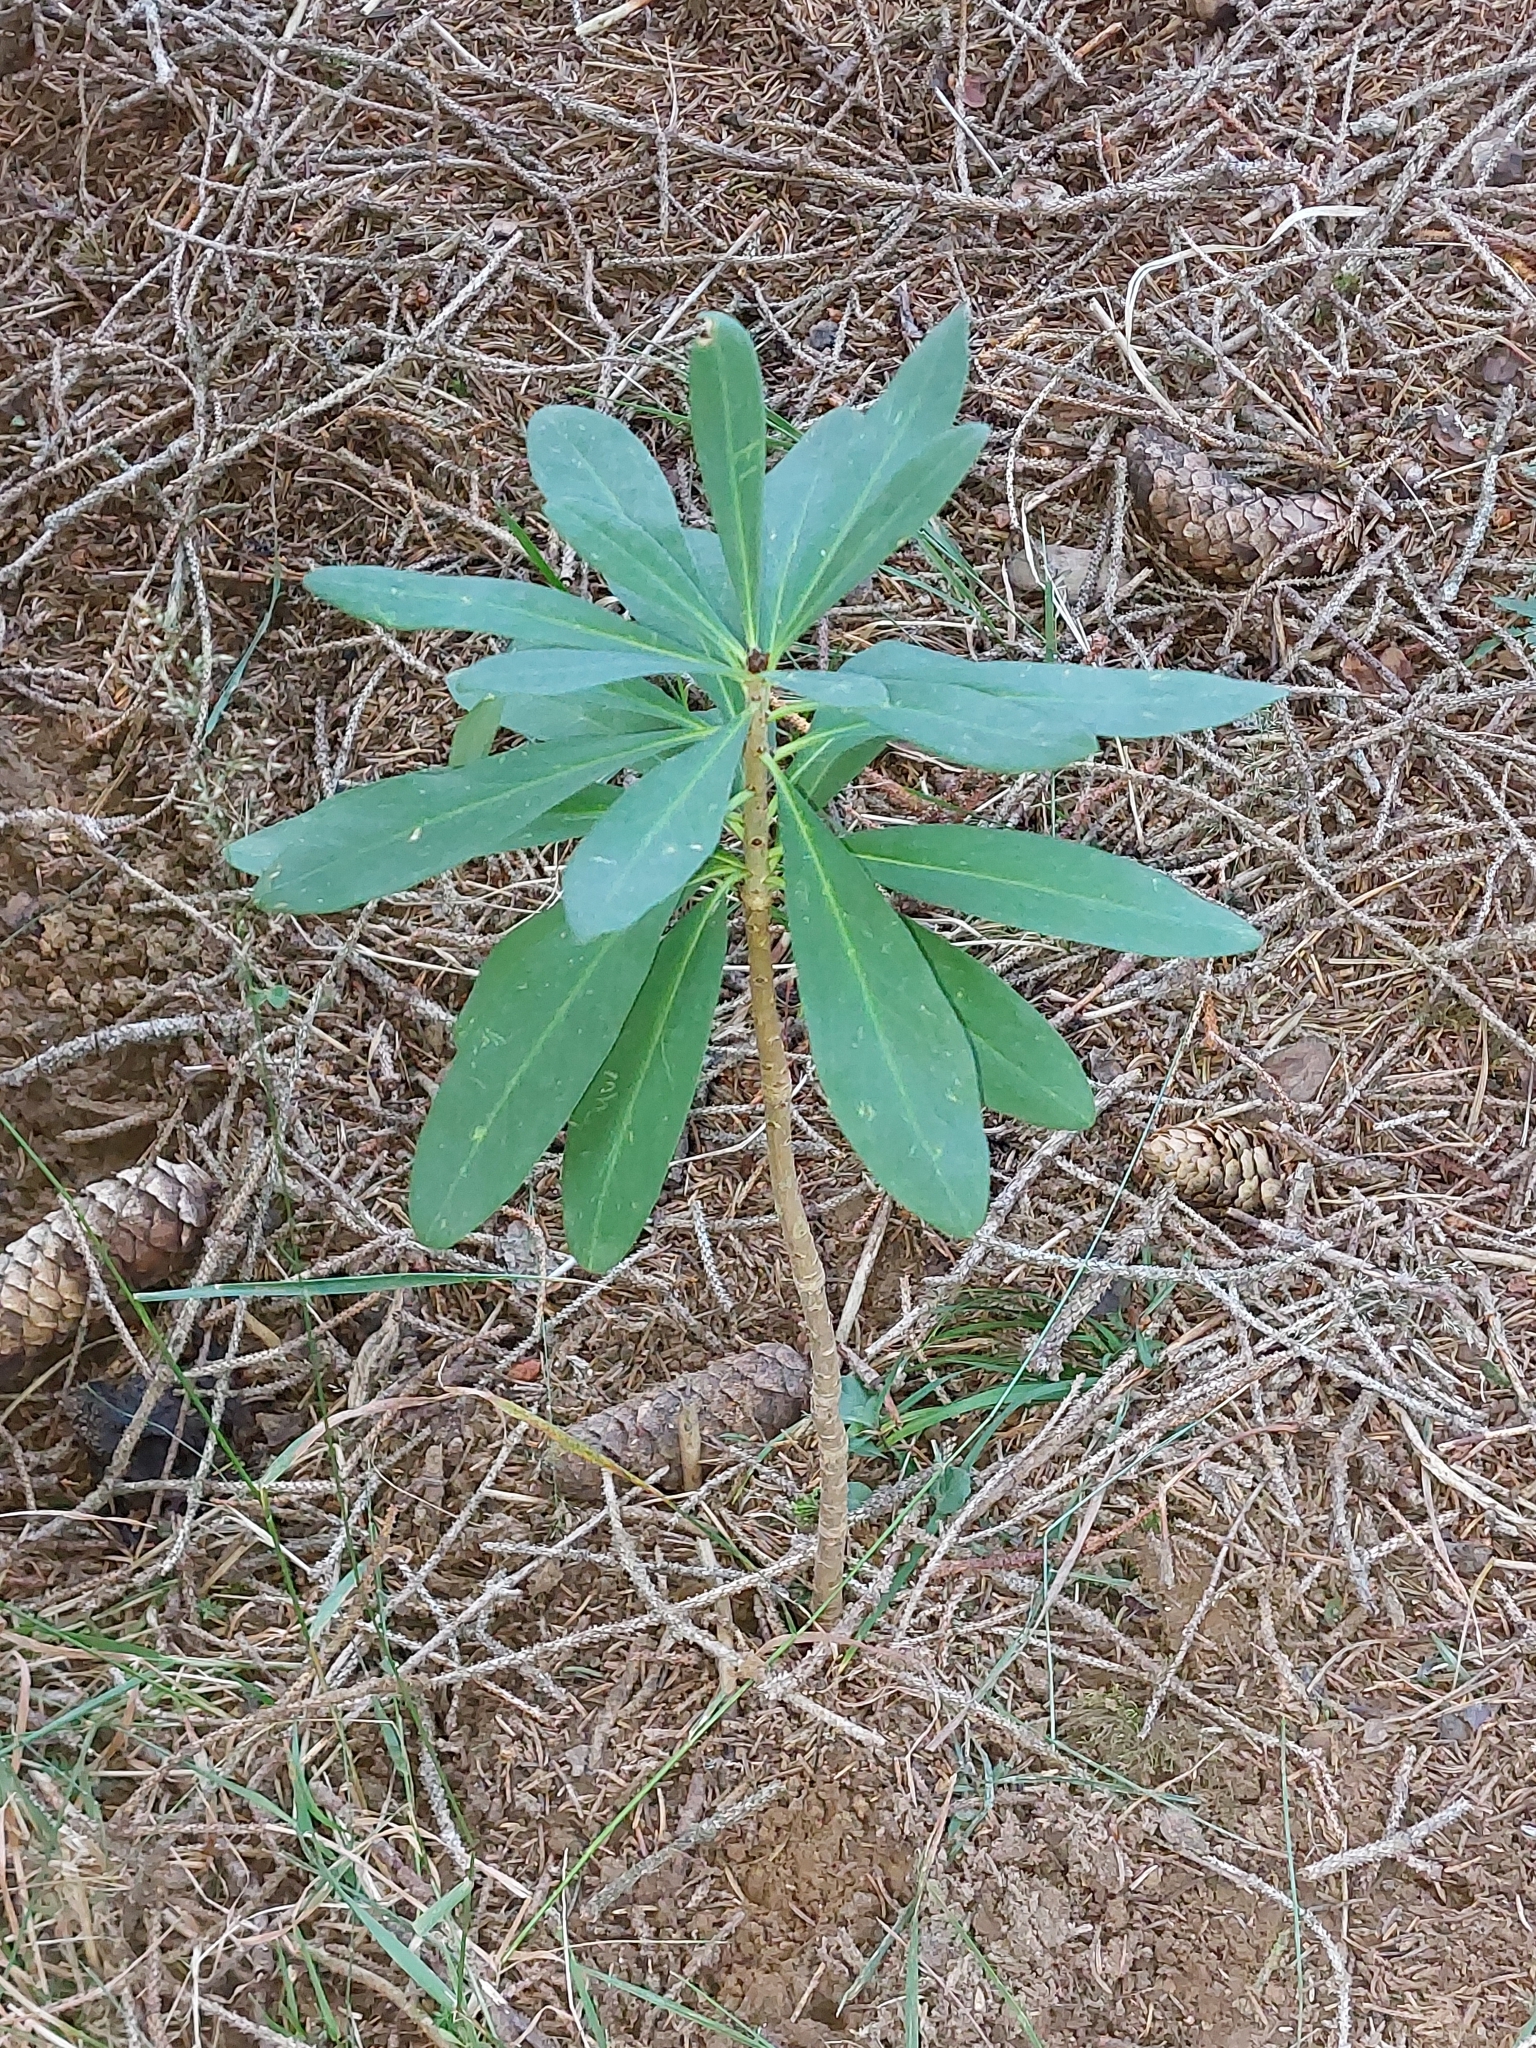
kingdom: Plantae
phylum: Tracheophyta
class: Magnoliopsida
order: Malvales
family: Thymelaeaceae
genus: Daphne
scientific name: Daphne mezereum
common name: Mezereon
